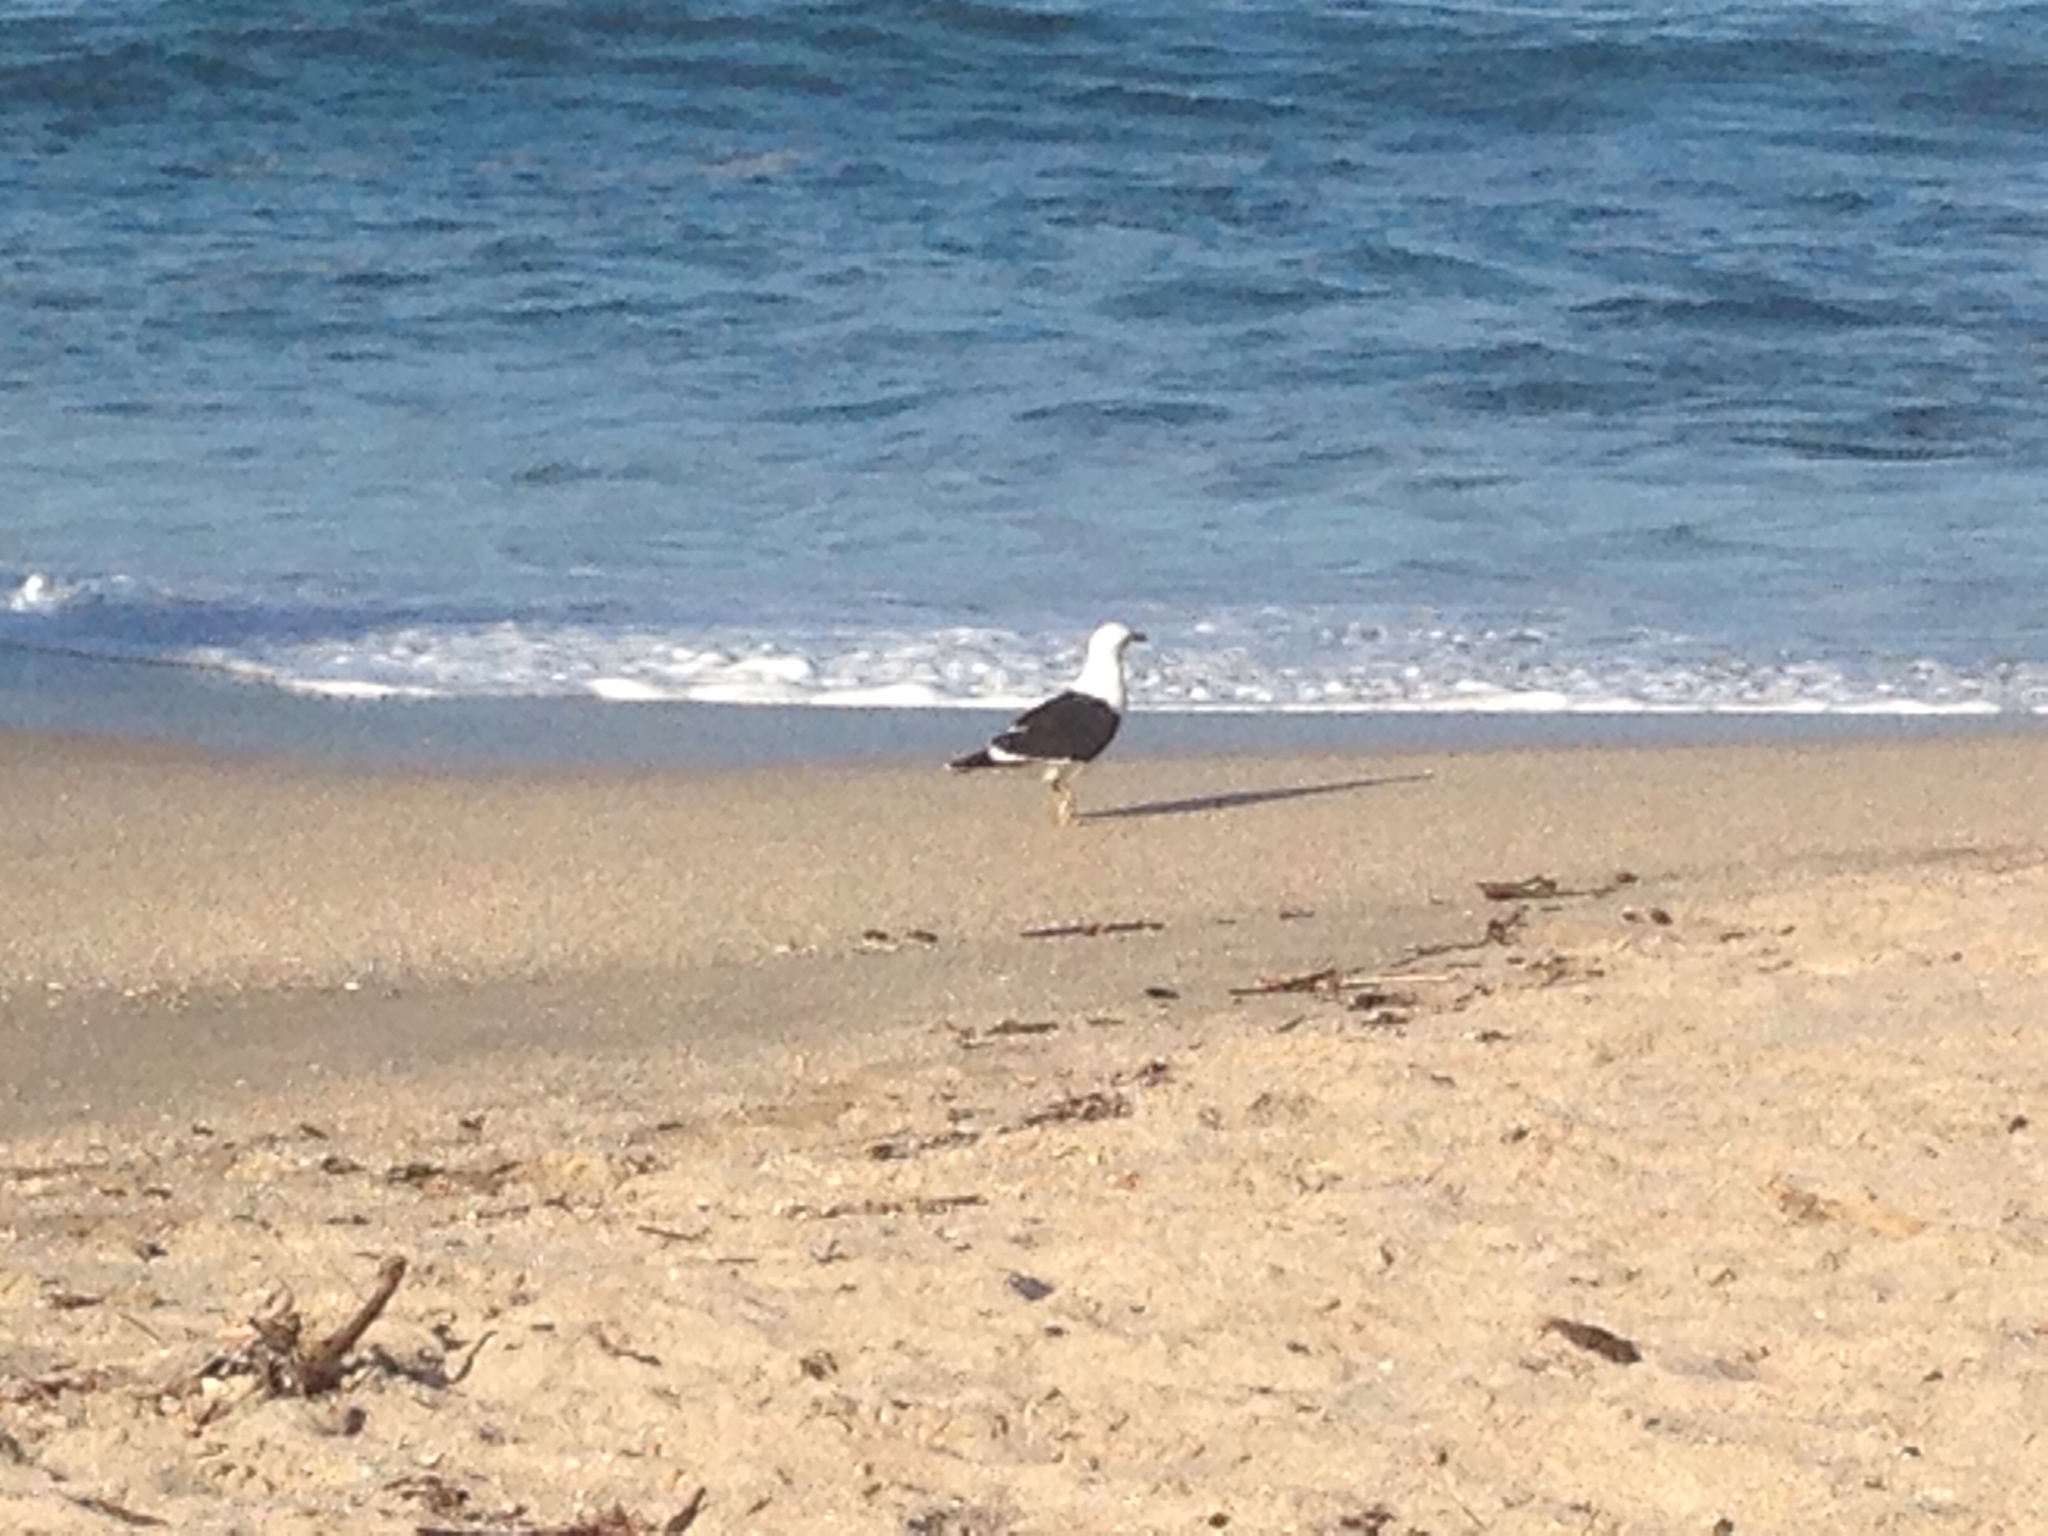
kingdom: Animalia
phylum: Chordata
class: Aves
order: Charadriiformes
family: Laridae
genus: Larus
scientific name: Larus dominicanus
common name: Kelp gull
